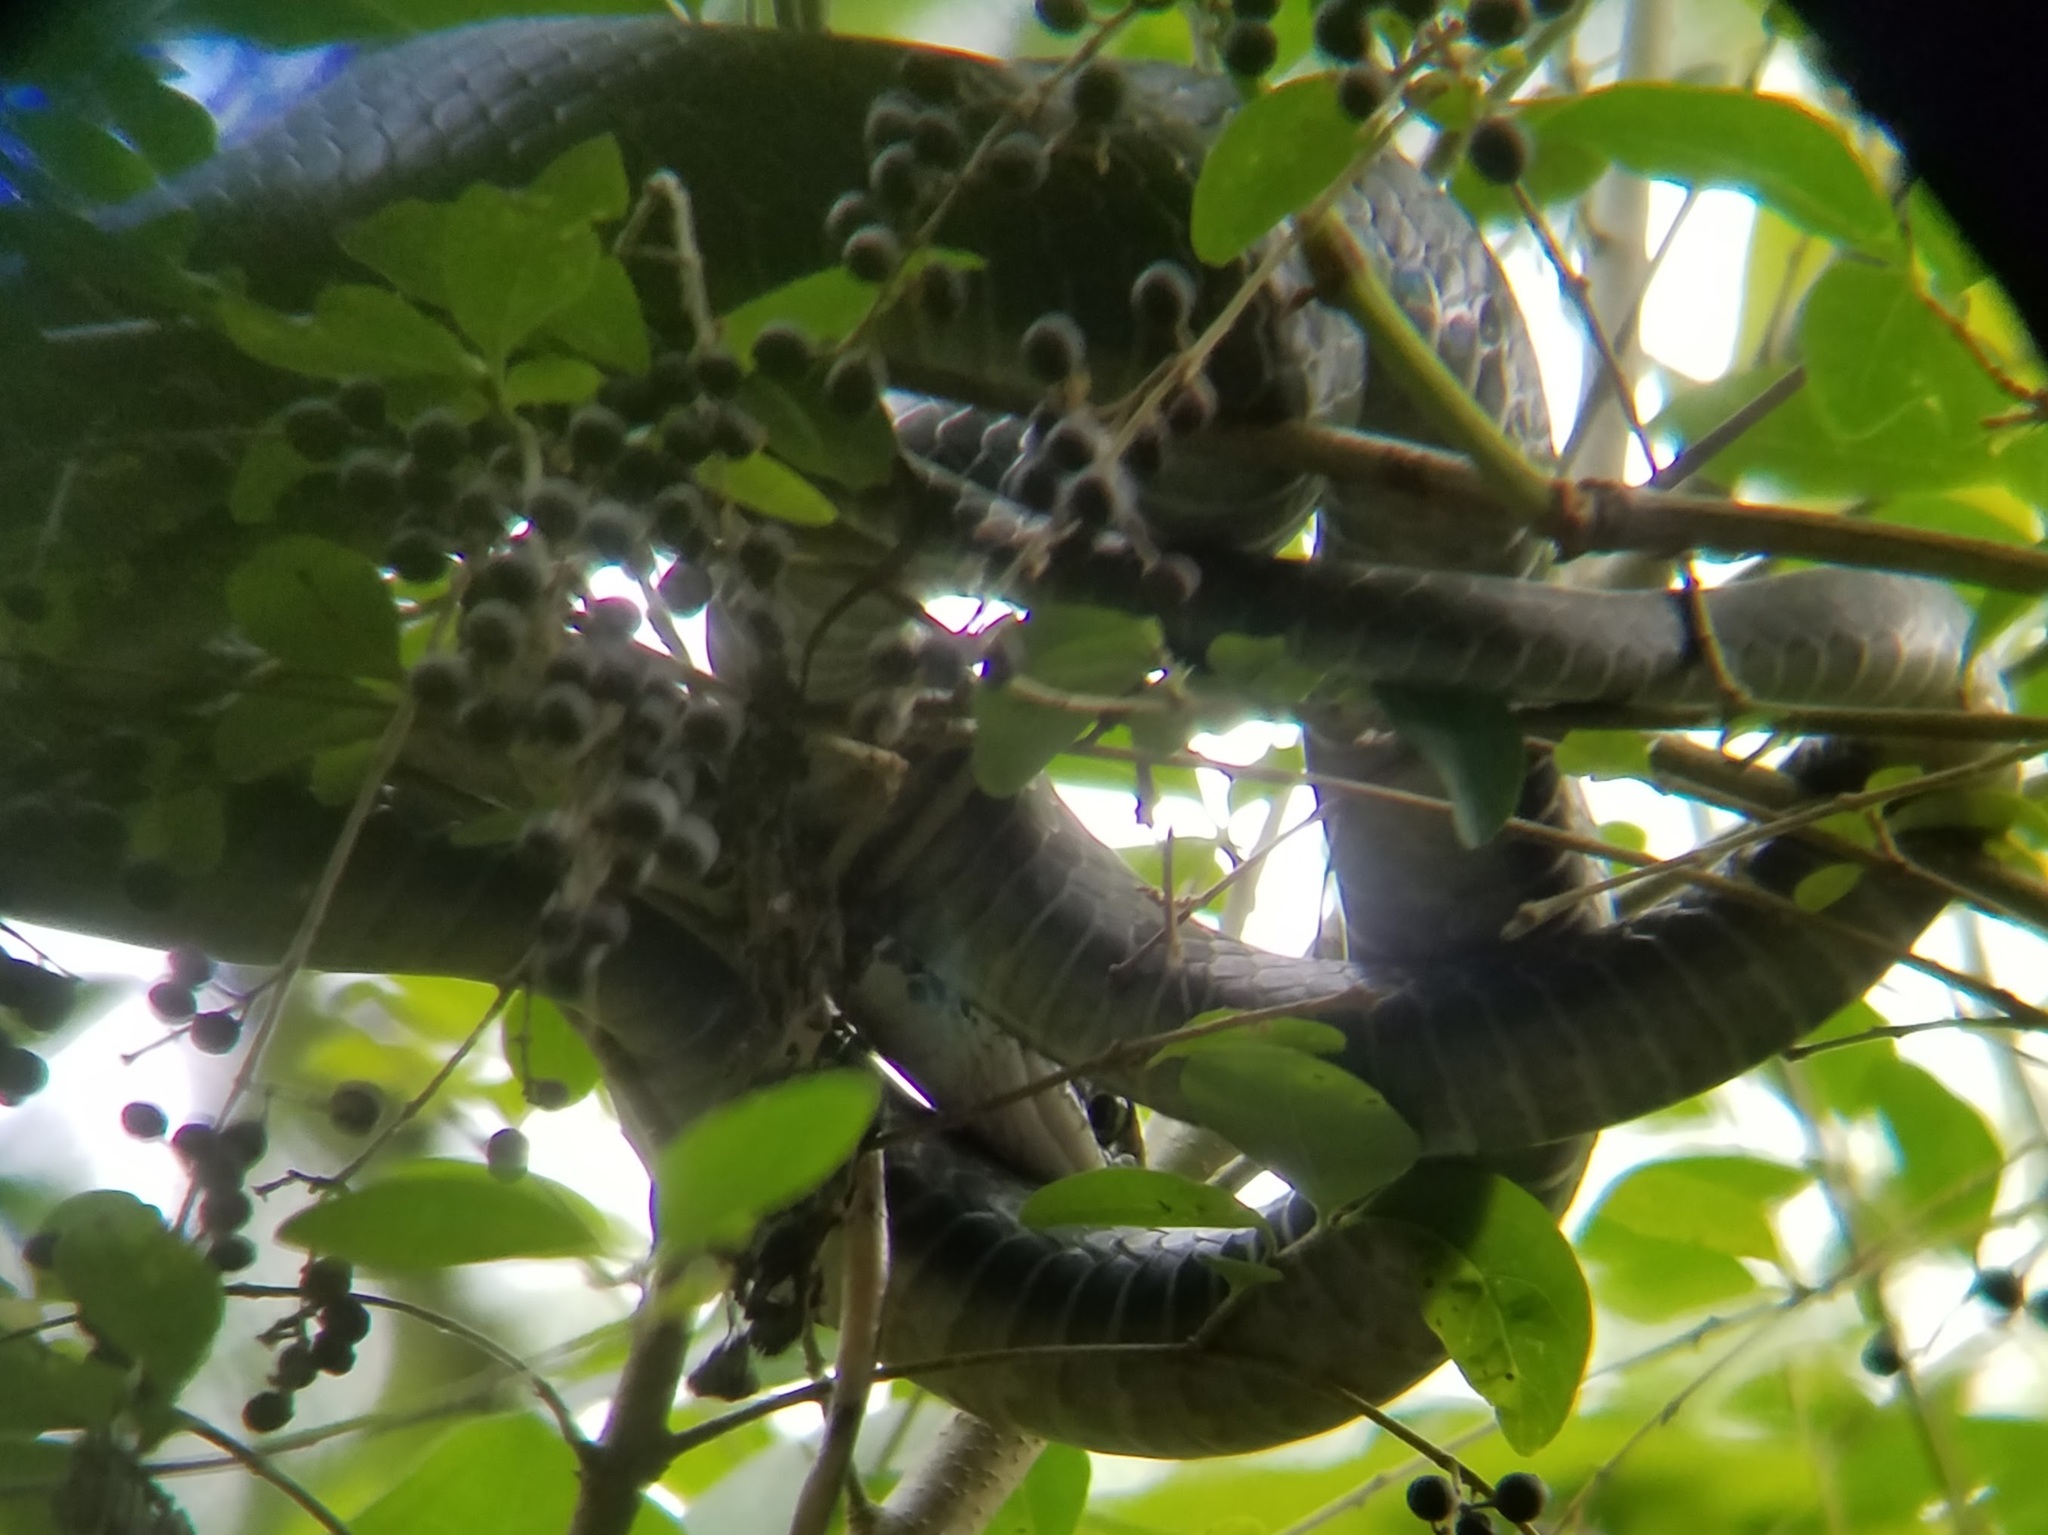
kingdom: Animalia
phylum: Chordata
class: Squamata
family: Colubridae
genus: Coluber
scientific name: Coluber constrictor
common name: Eastern racer
